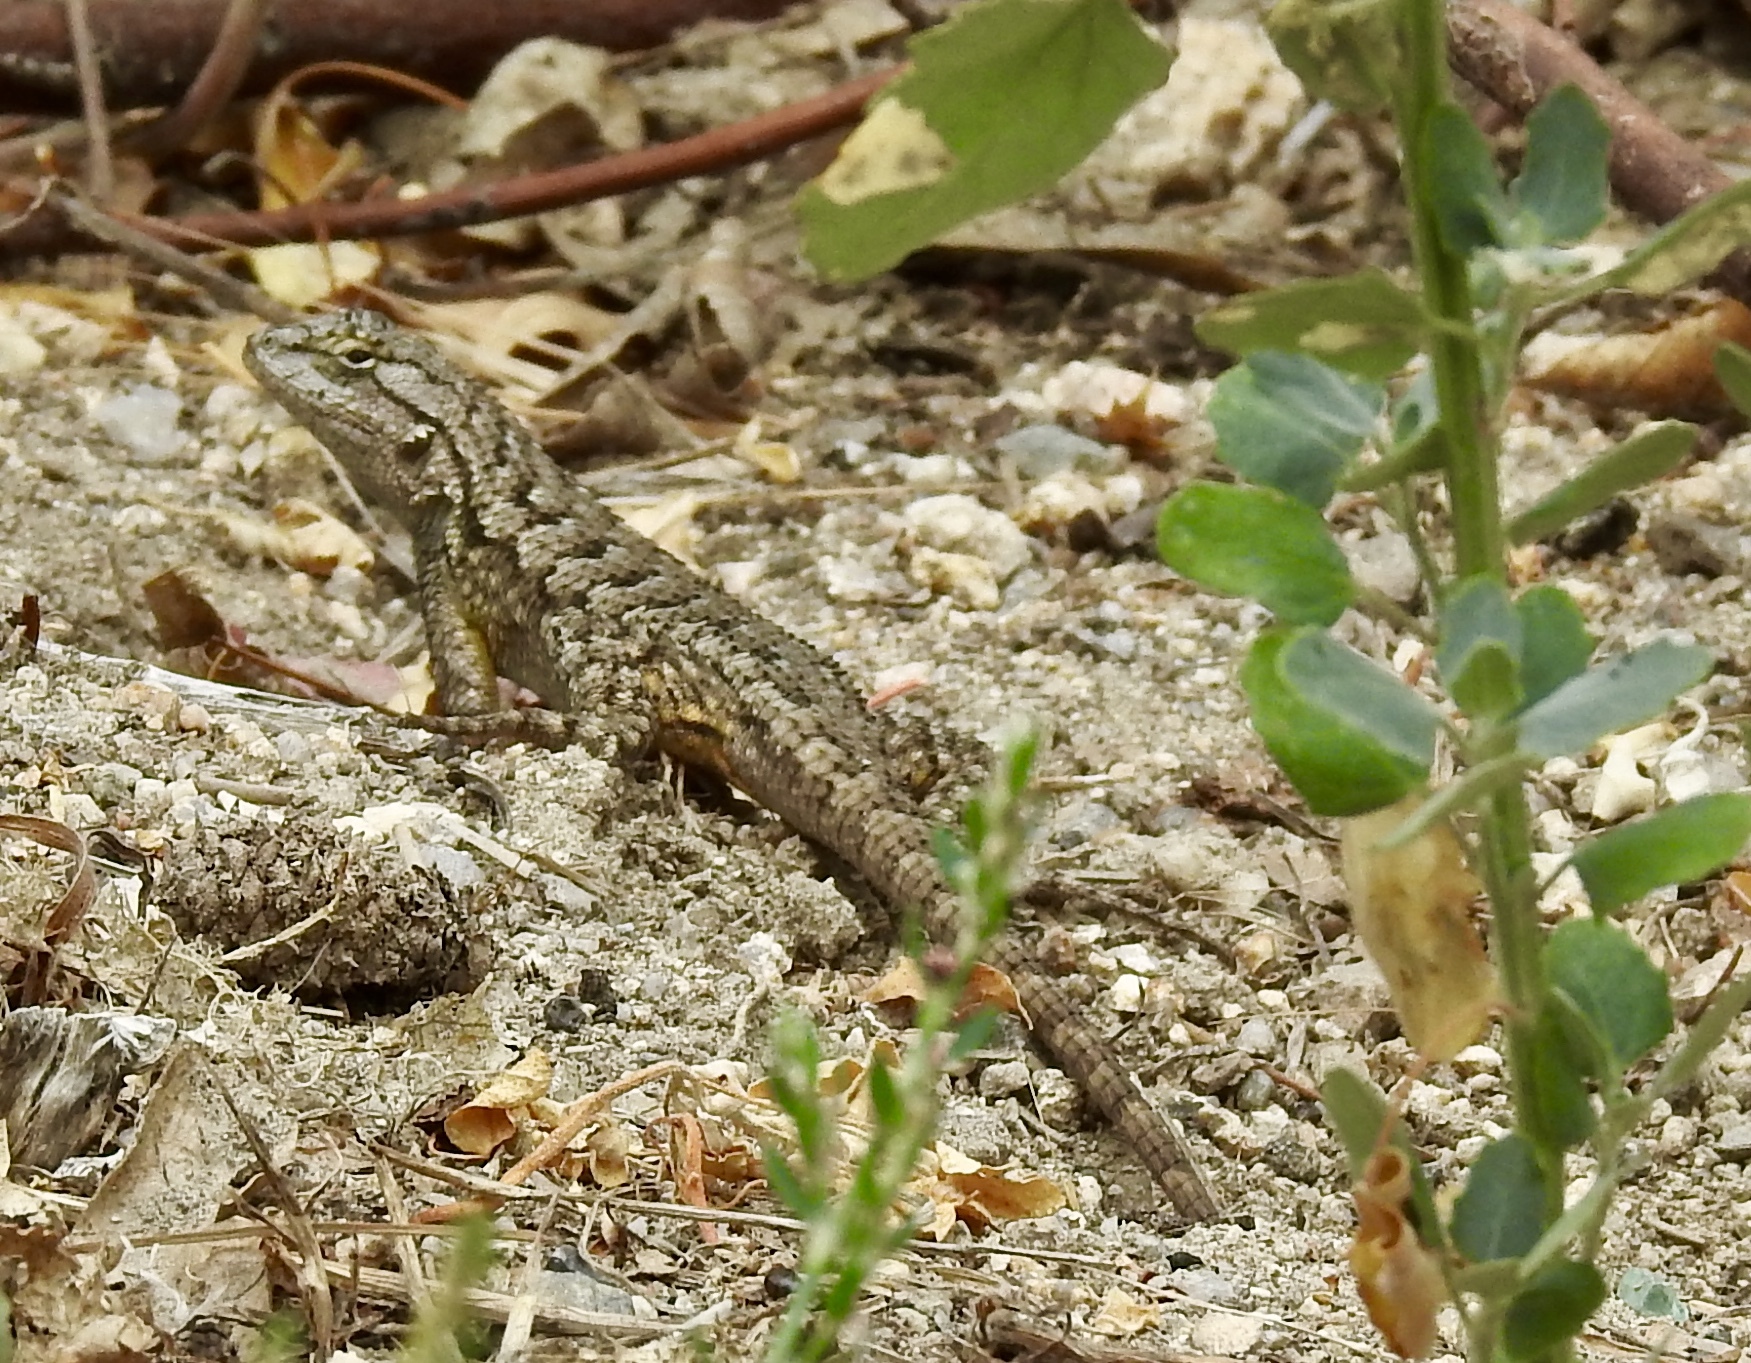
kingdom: Animalia
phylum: Chordata
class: Squamata
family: Phrynosomatidae
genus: Sceloporus
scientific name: Sceloporus occidentalis
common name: Western fence lizard
